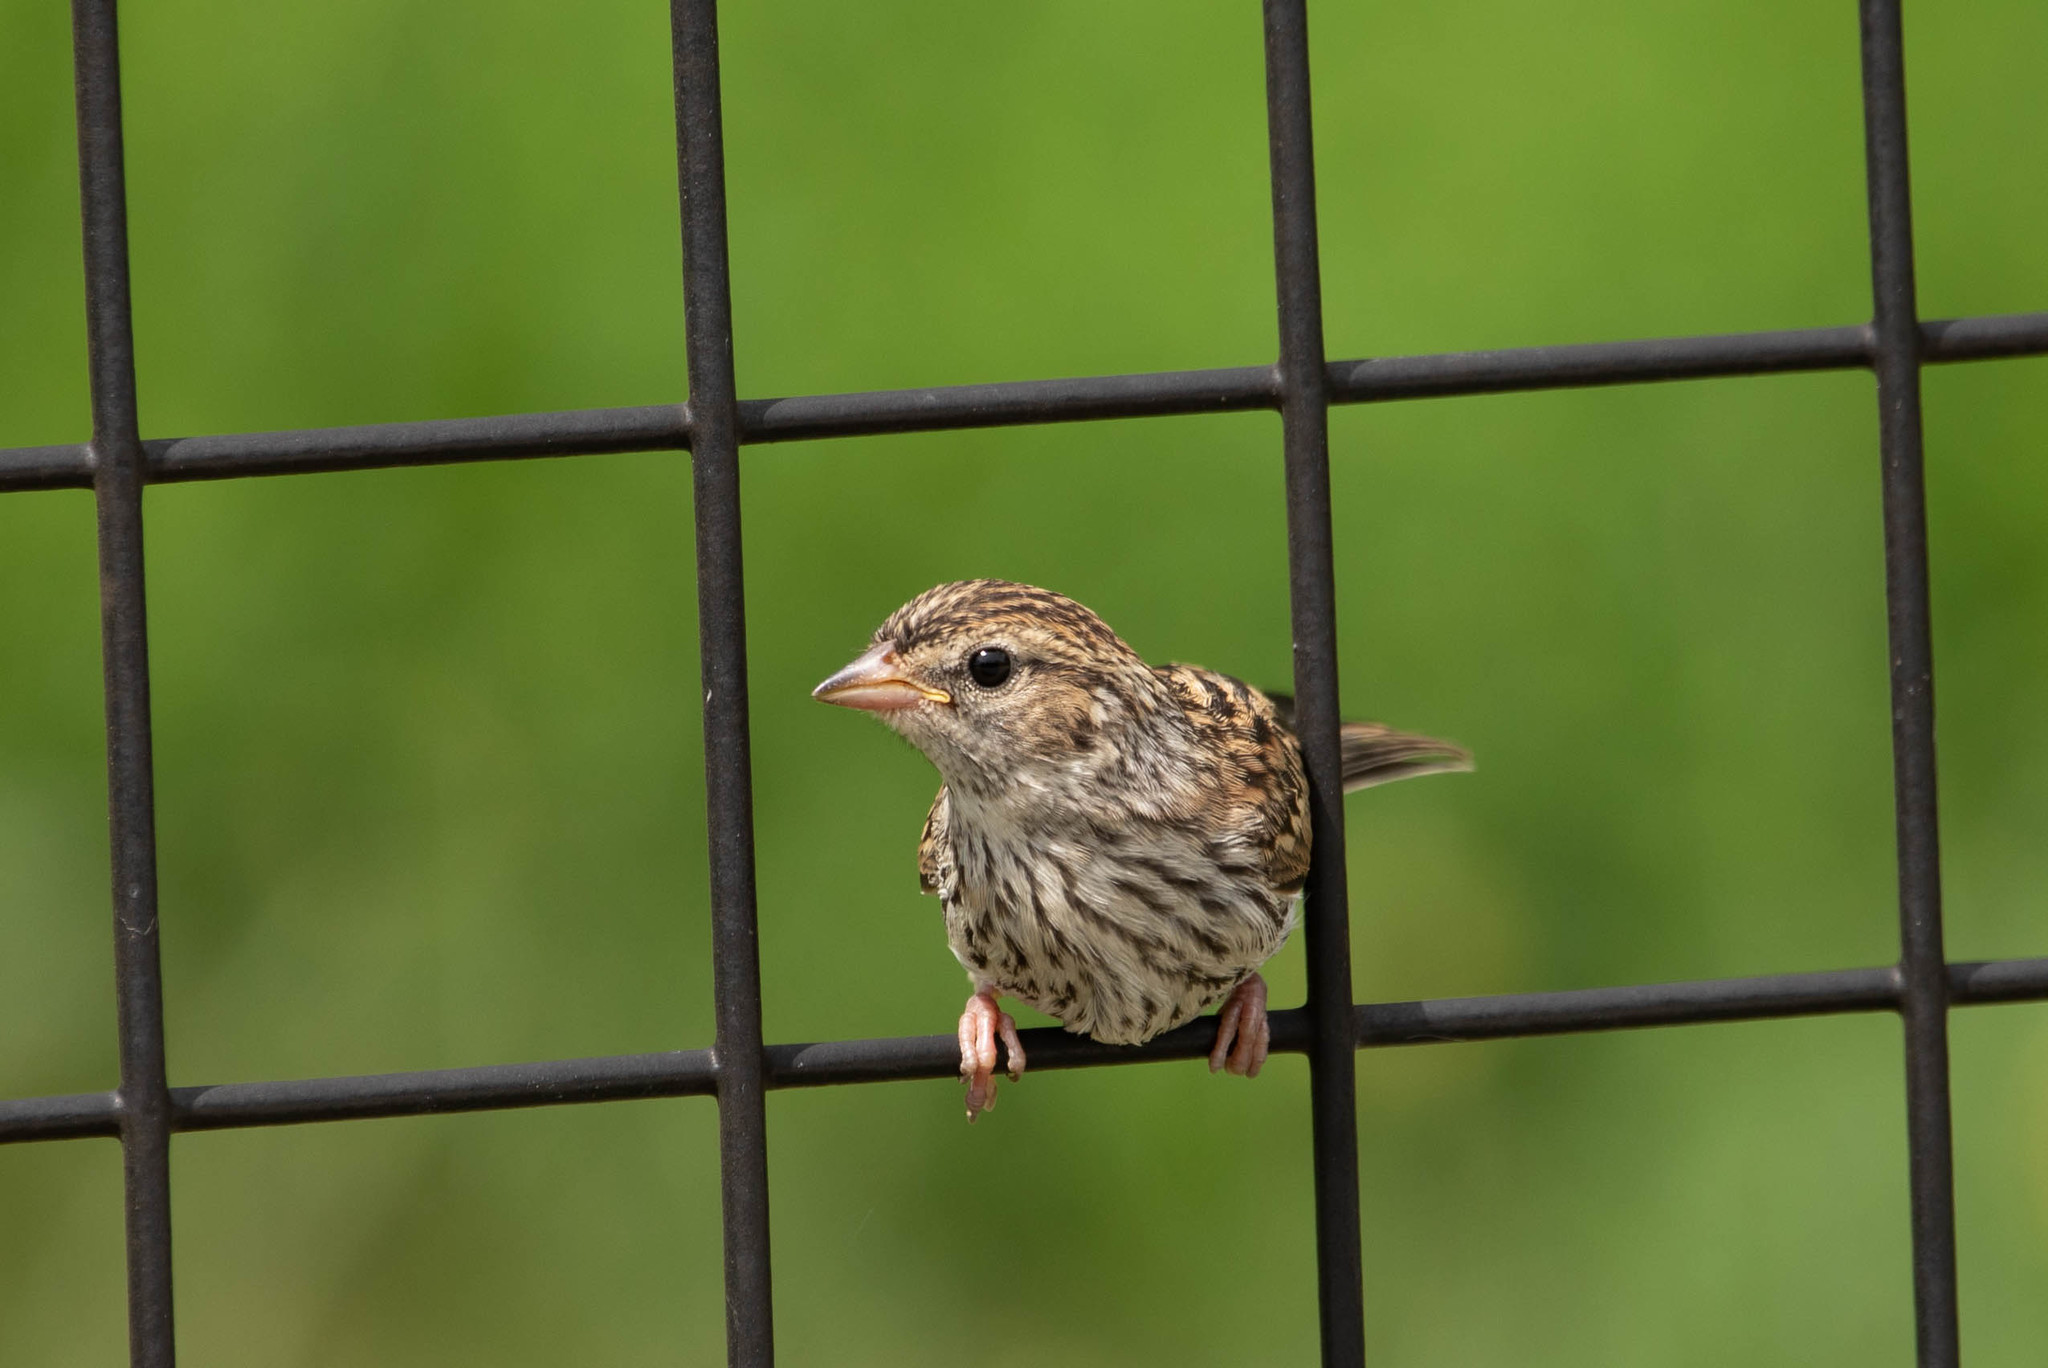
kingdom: Animalia
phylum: Chordata
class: Aves
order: Passeriformes
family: Passerellidae
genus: Spizella
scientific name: Spizella passerina
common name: Chipping sparrow
